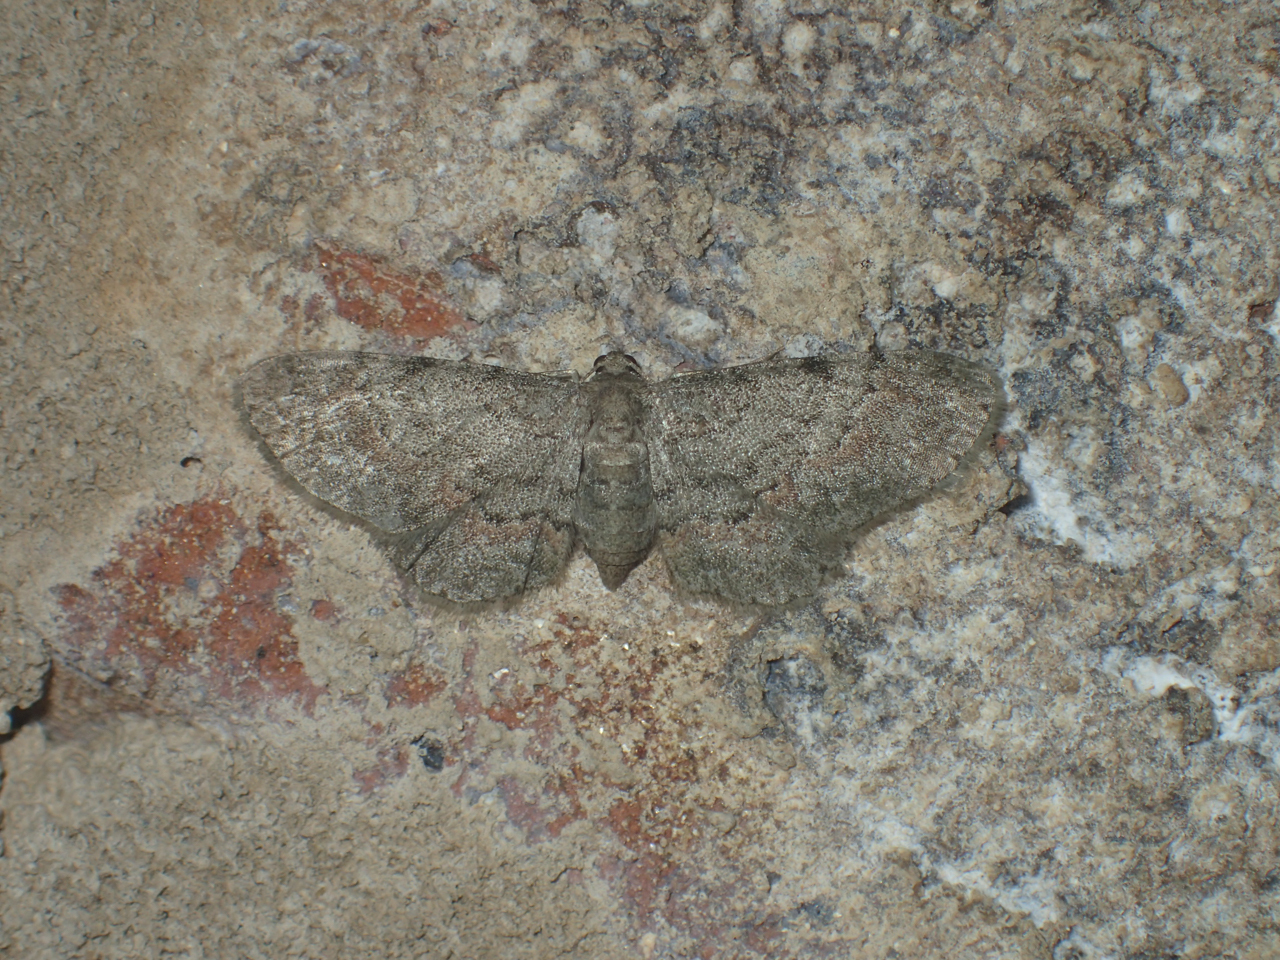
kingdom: Animalia
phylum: Arthropoda
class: Insecta
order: Lepidoptera
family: Geometridae
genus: Glenoides
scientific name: Glenoides texanaria
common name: Texas gray
